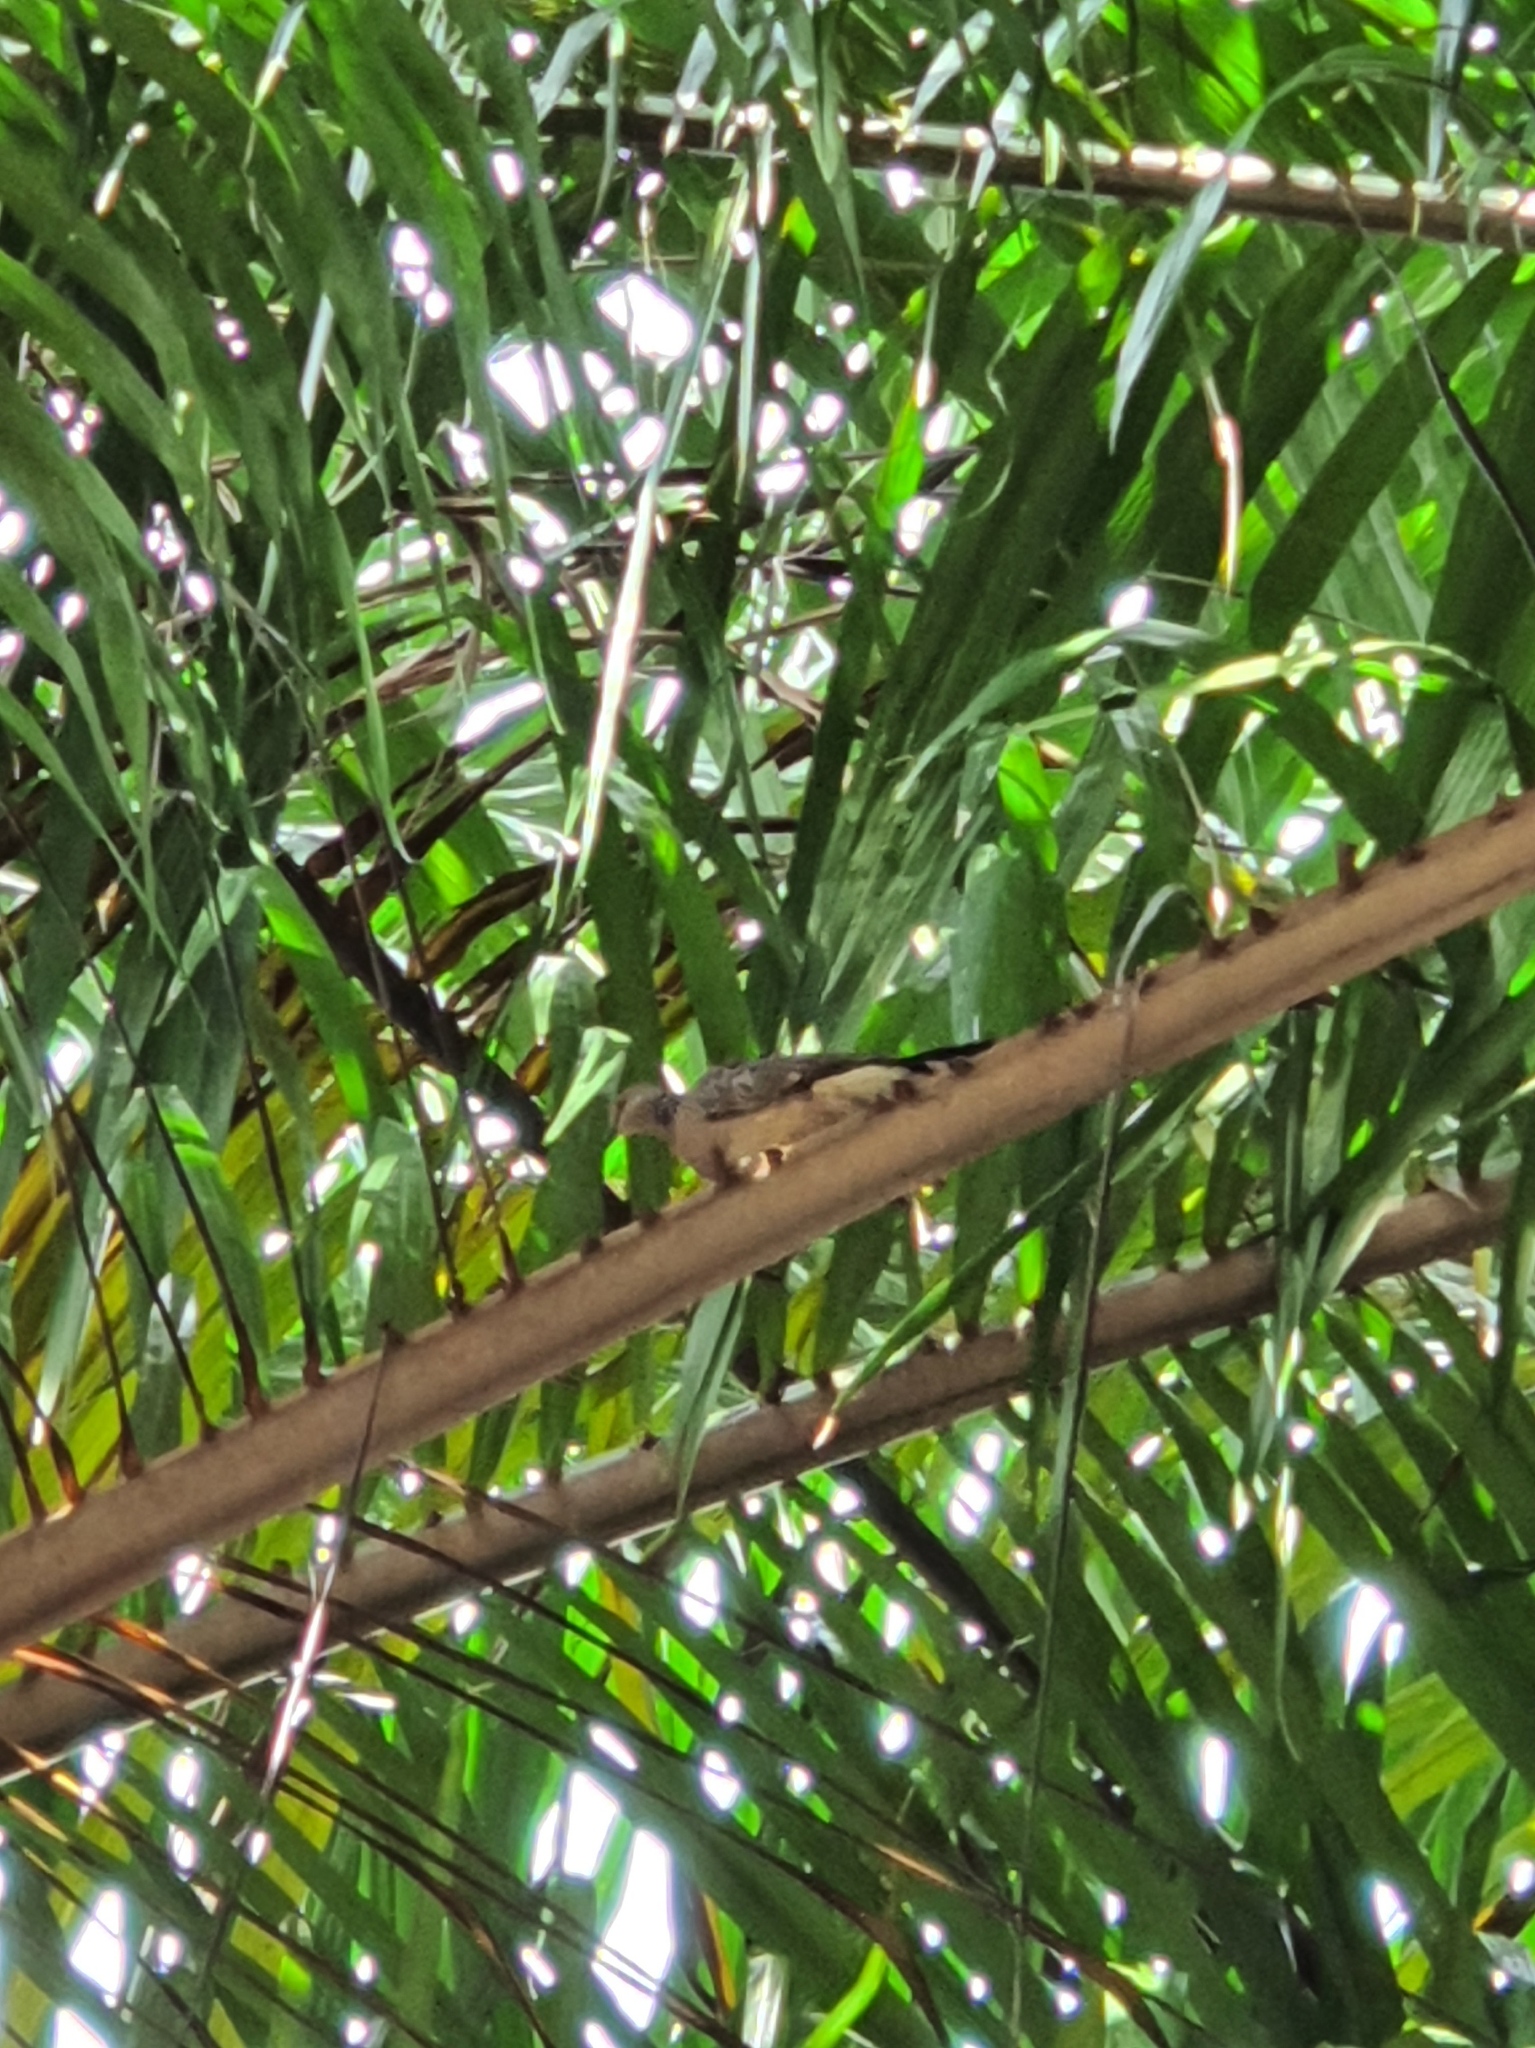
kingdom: Animalia
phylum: Chordata
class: Aves
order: Columbiformes
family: Columbidae
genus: Spilopelia
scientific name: Spilopelia chinensis
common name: Spotted dove
